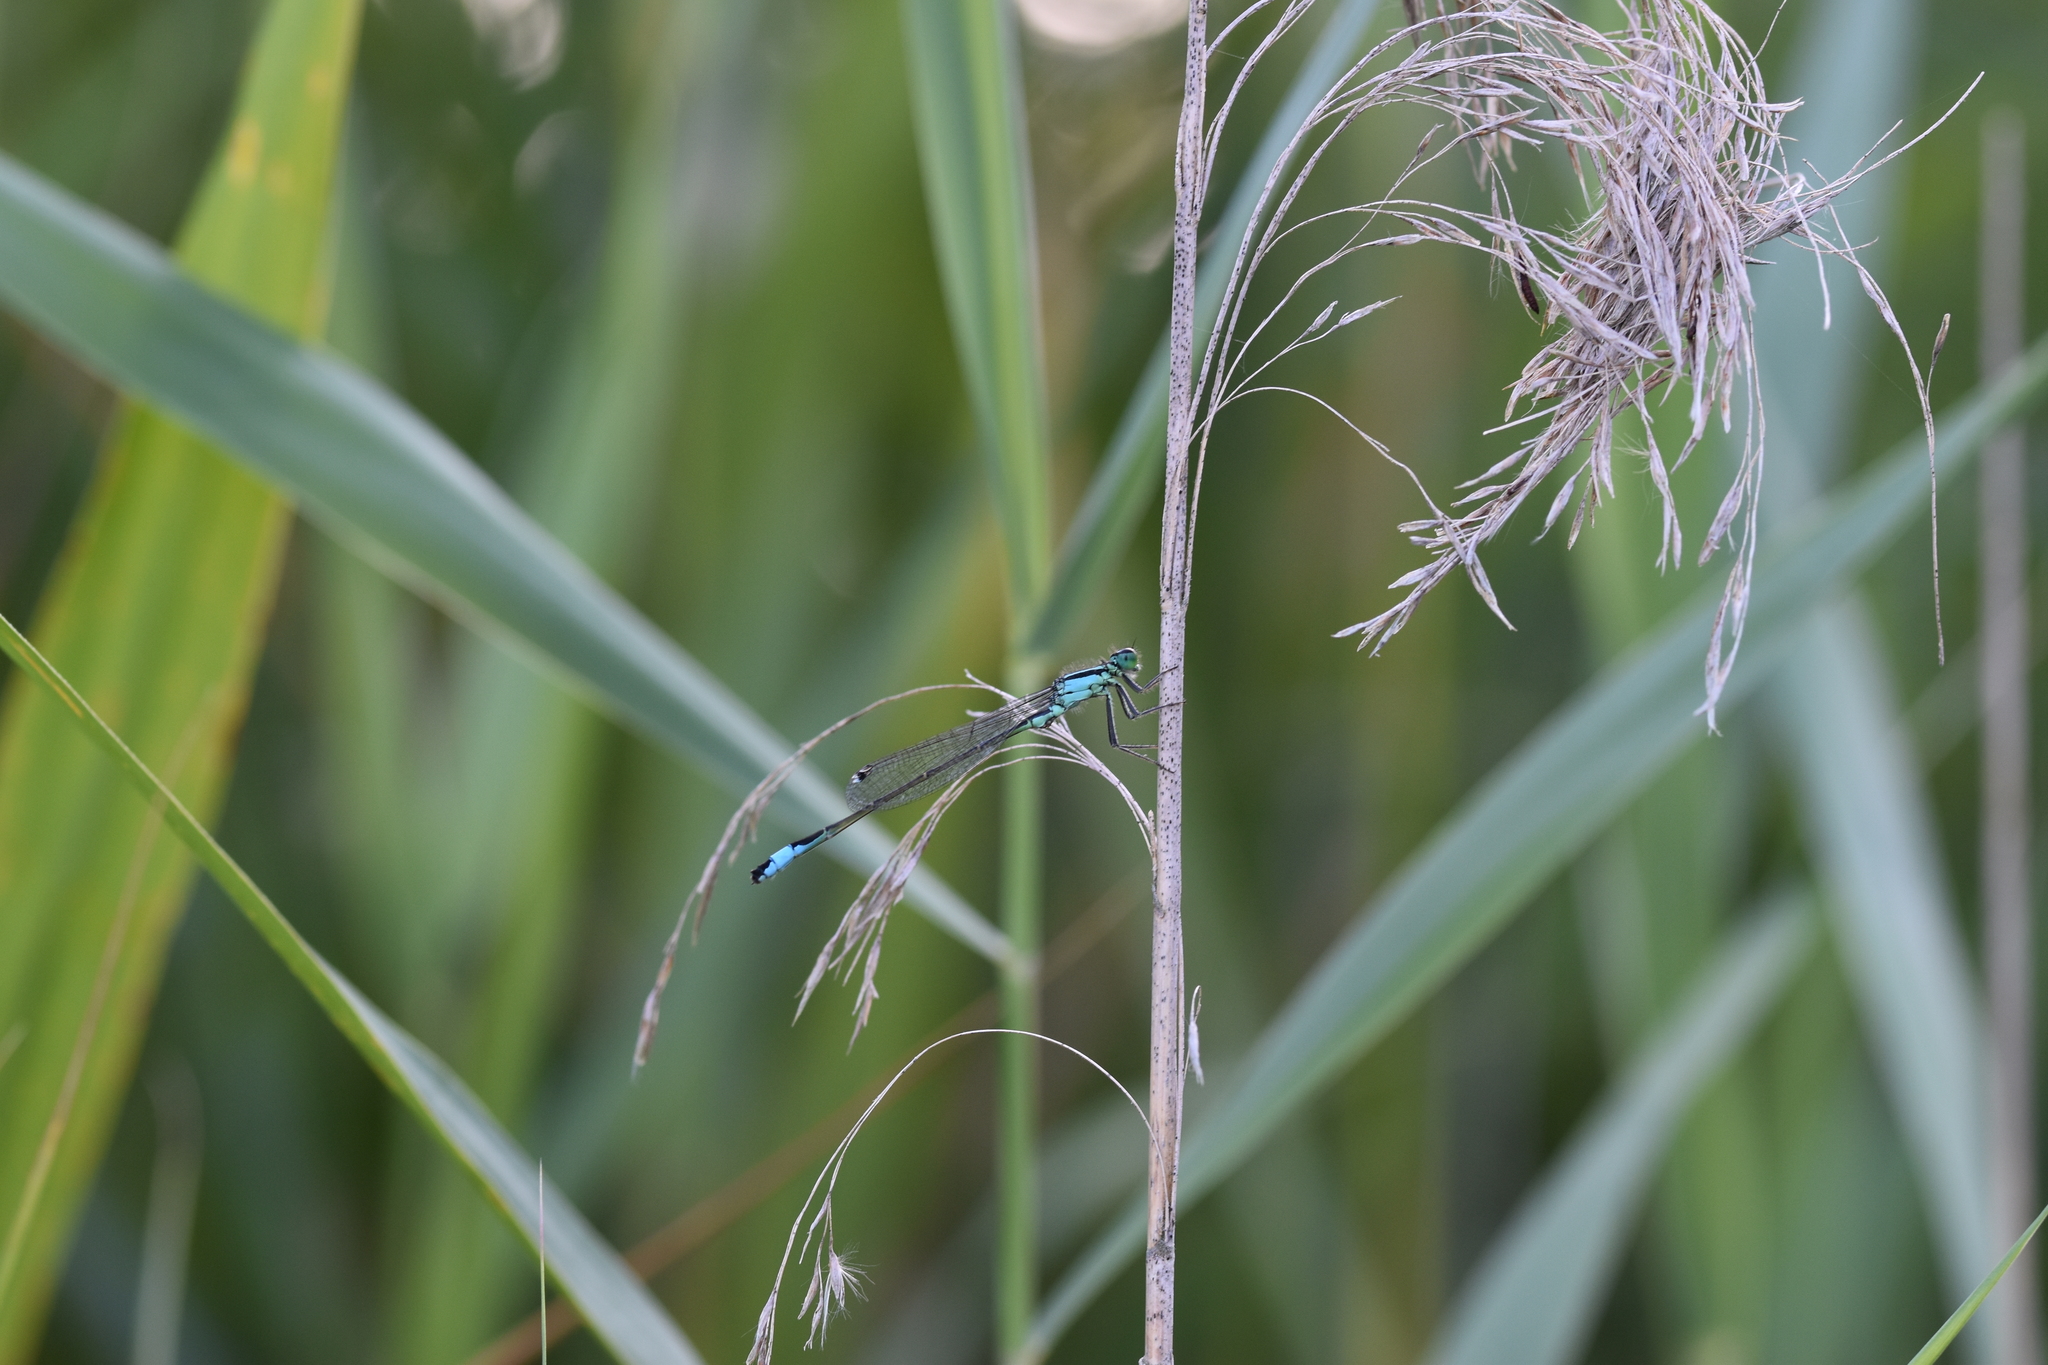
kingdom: Animalia
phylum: Arthropoda
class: Insecta
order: Odonata
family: Coenagrionidae
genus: Ischnura
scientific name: Ischnura elegans
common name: Blue-tailed damselfly
